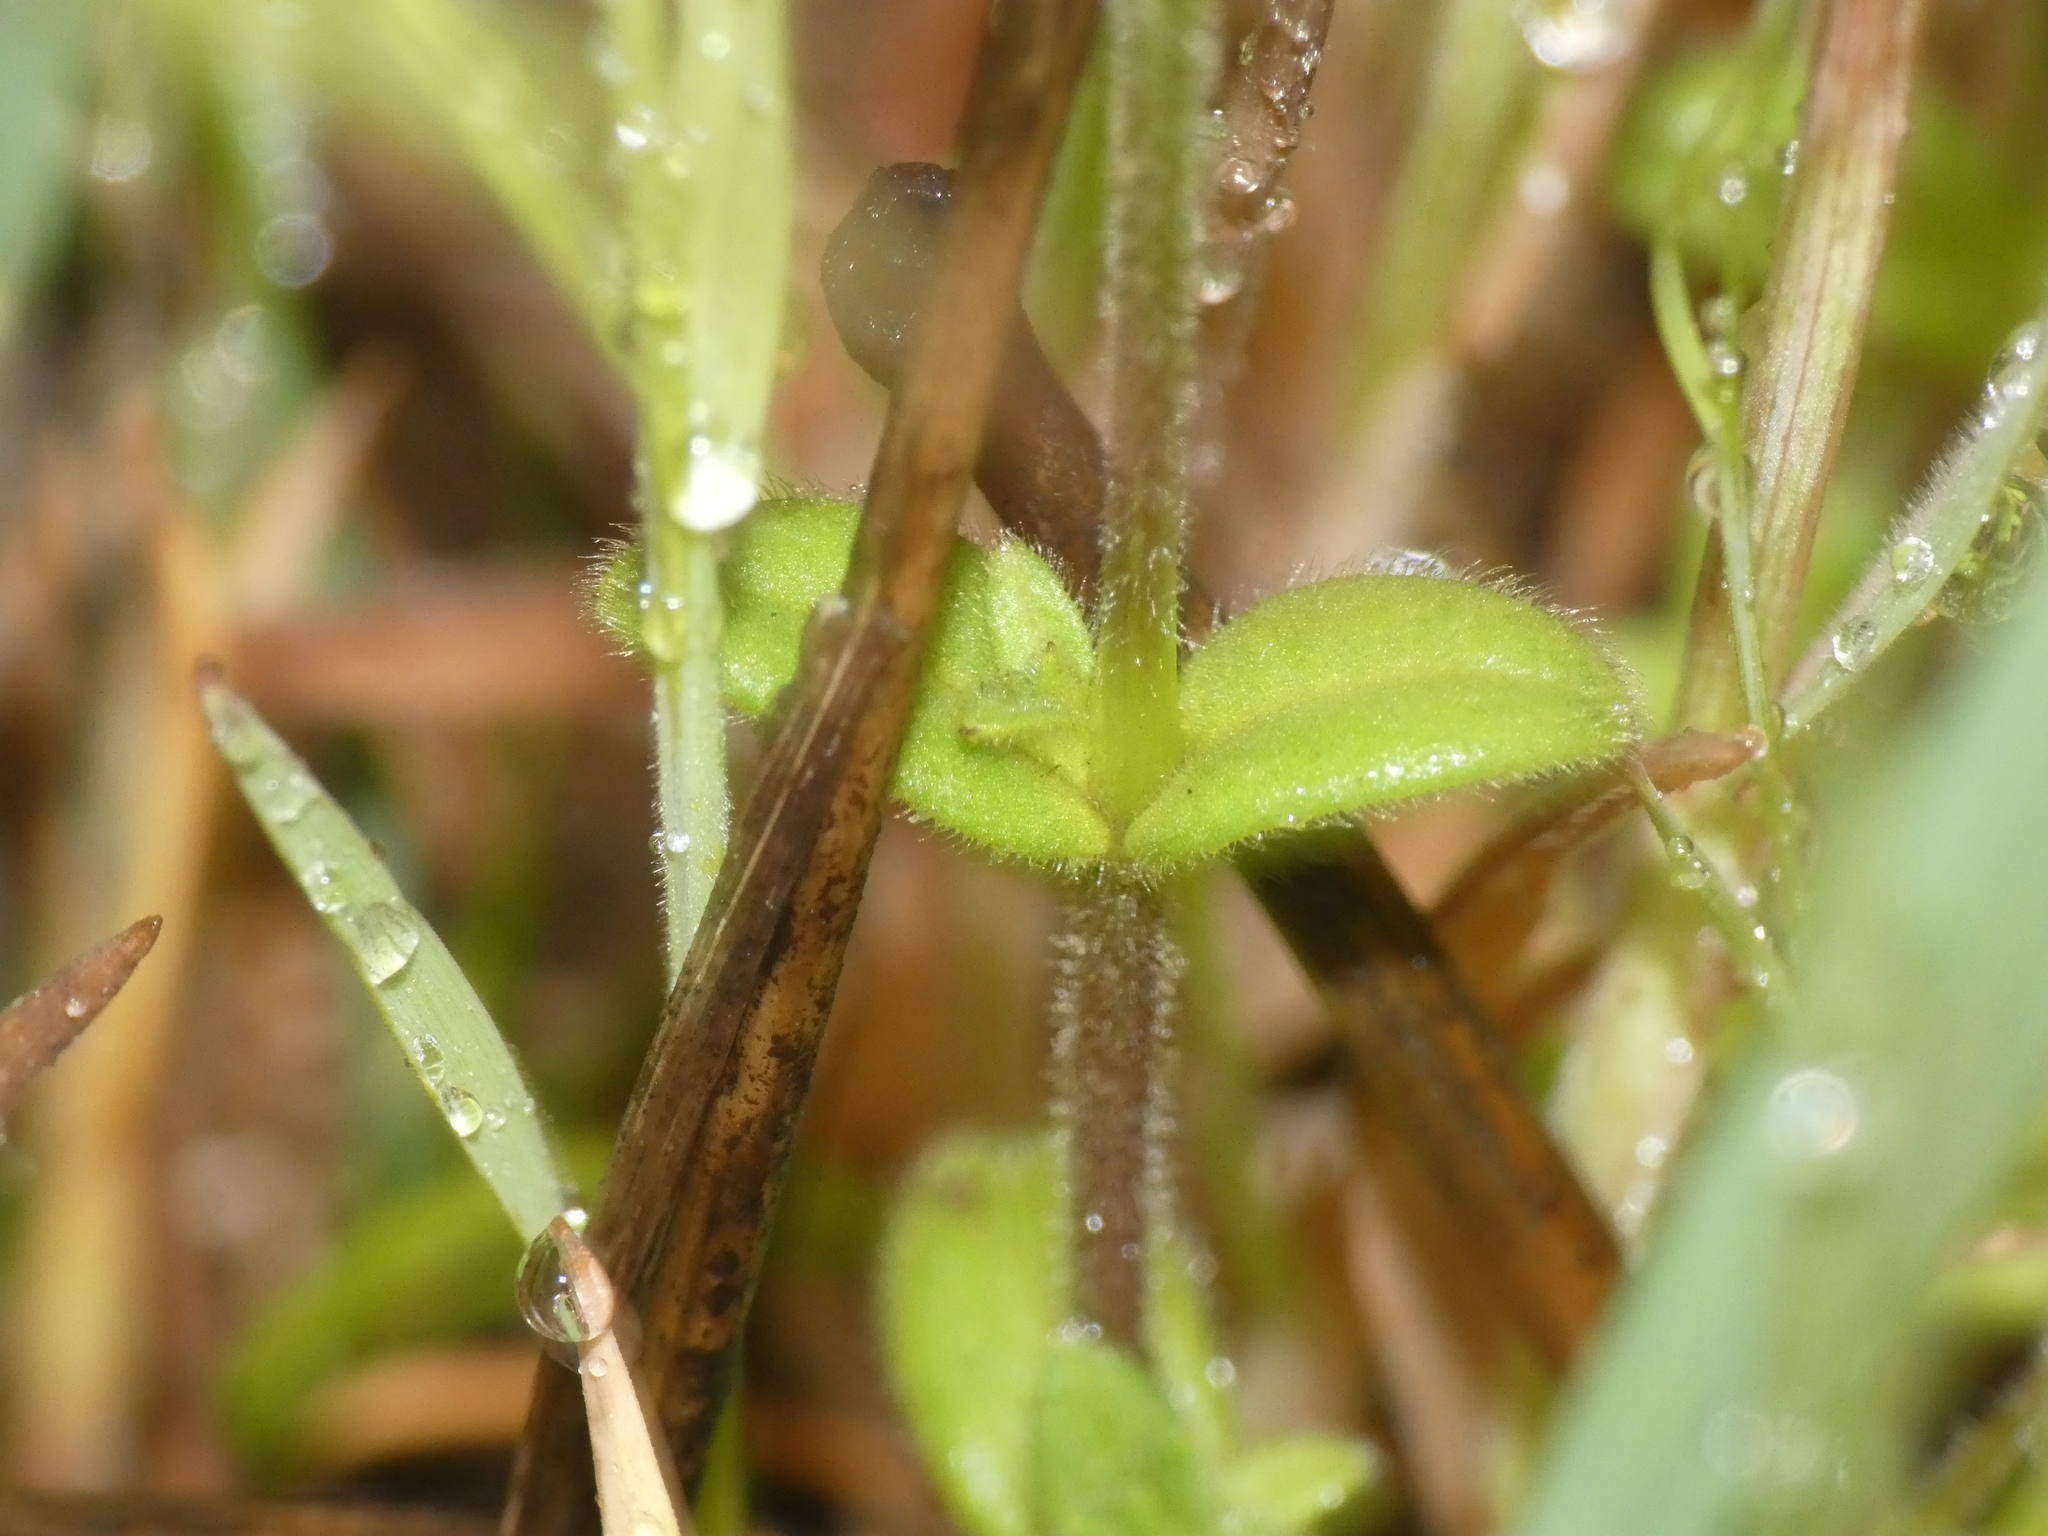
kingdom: Plantae
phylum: Tracheophyta
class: Magnoliopsida
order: Caryophyllales
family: Caryophyllaceae
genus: Cerastium
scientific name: Cerastium semidecandrum
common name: Little mouse-ear
